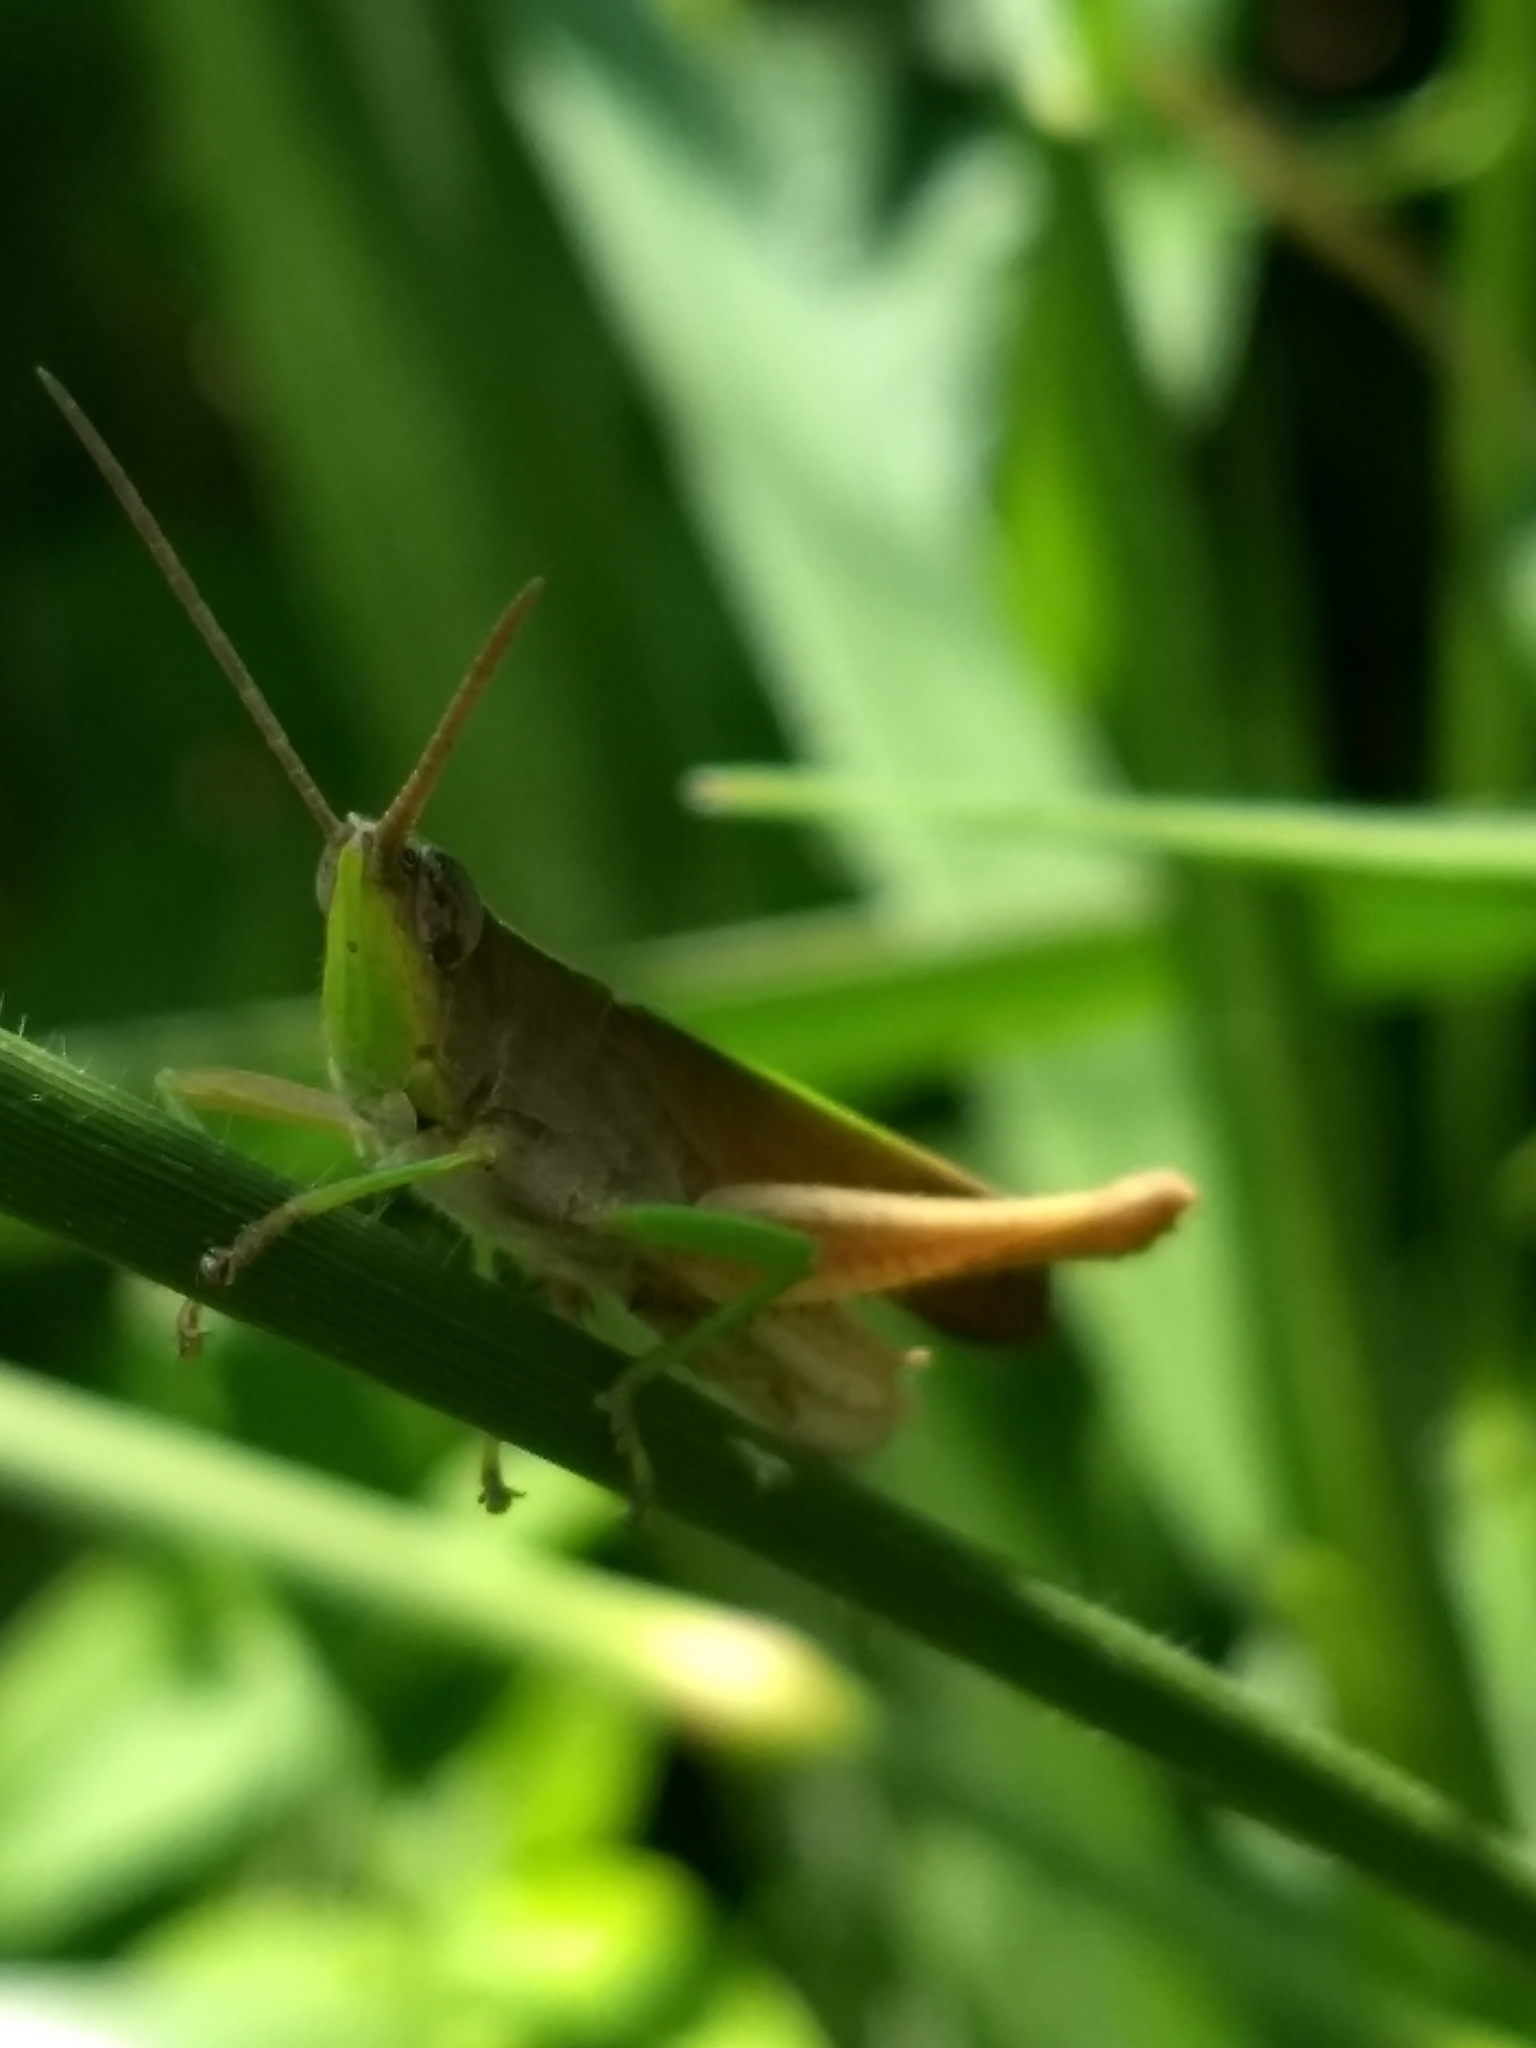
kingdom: Animalia
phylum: Arthropoda
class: Insecta
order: Orthoptera
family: Acrididae
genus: Metaleptea
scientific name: Metaleptea adspersa
